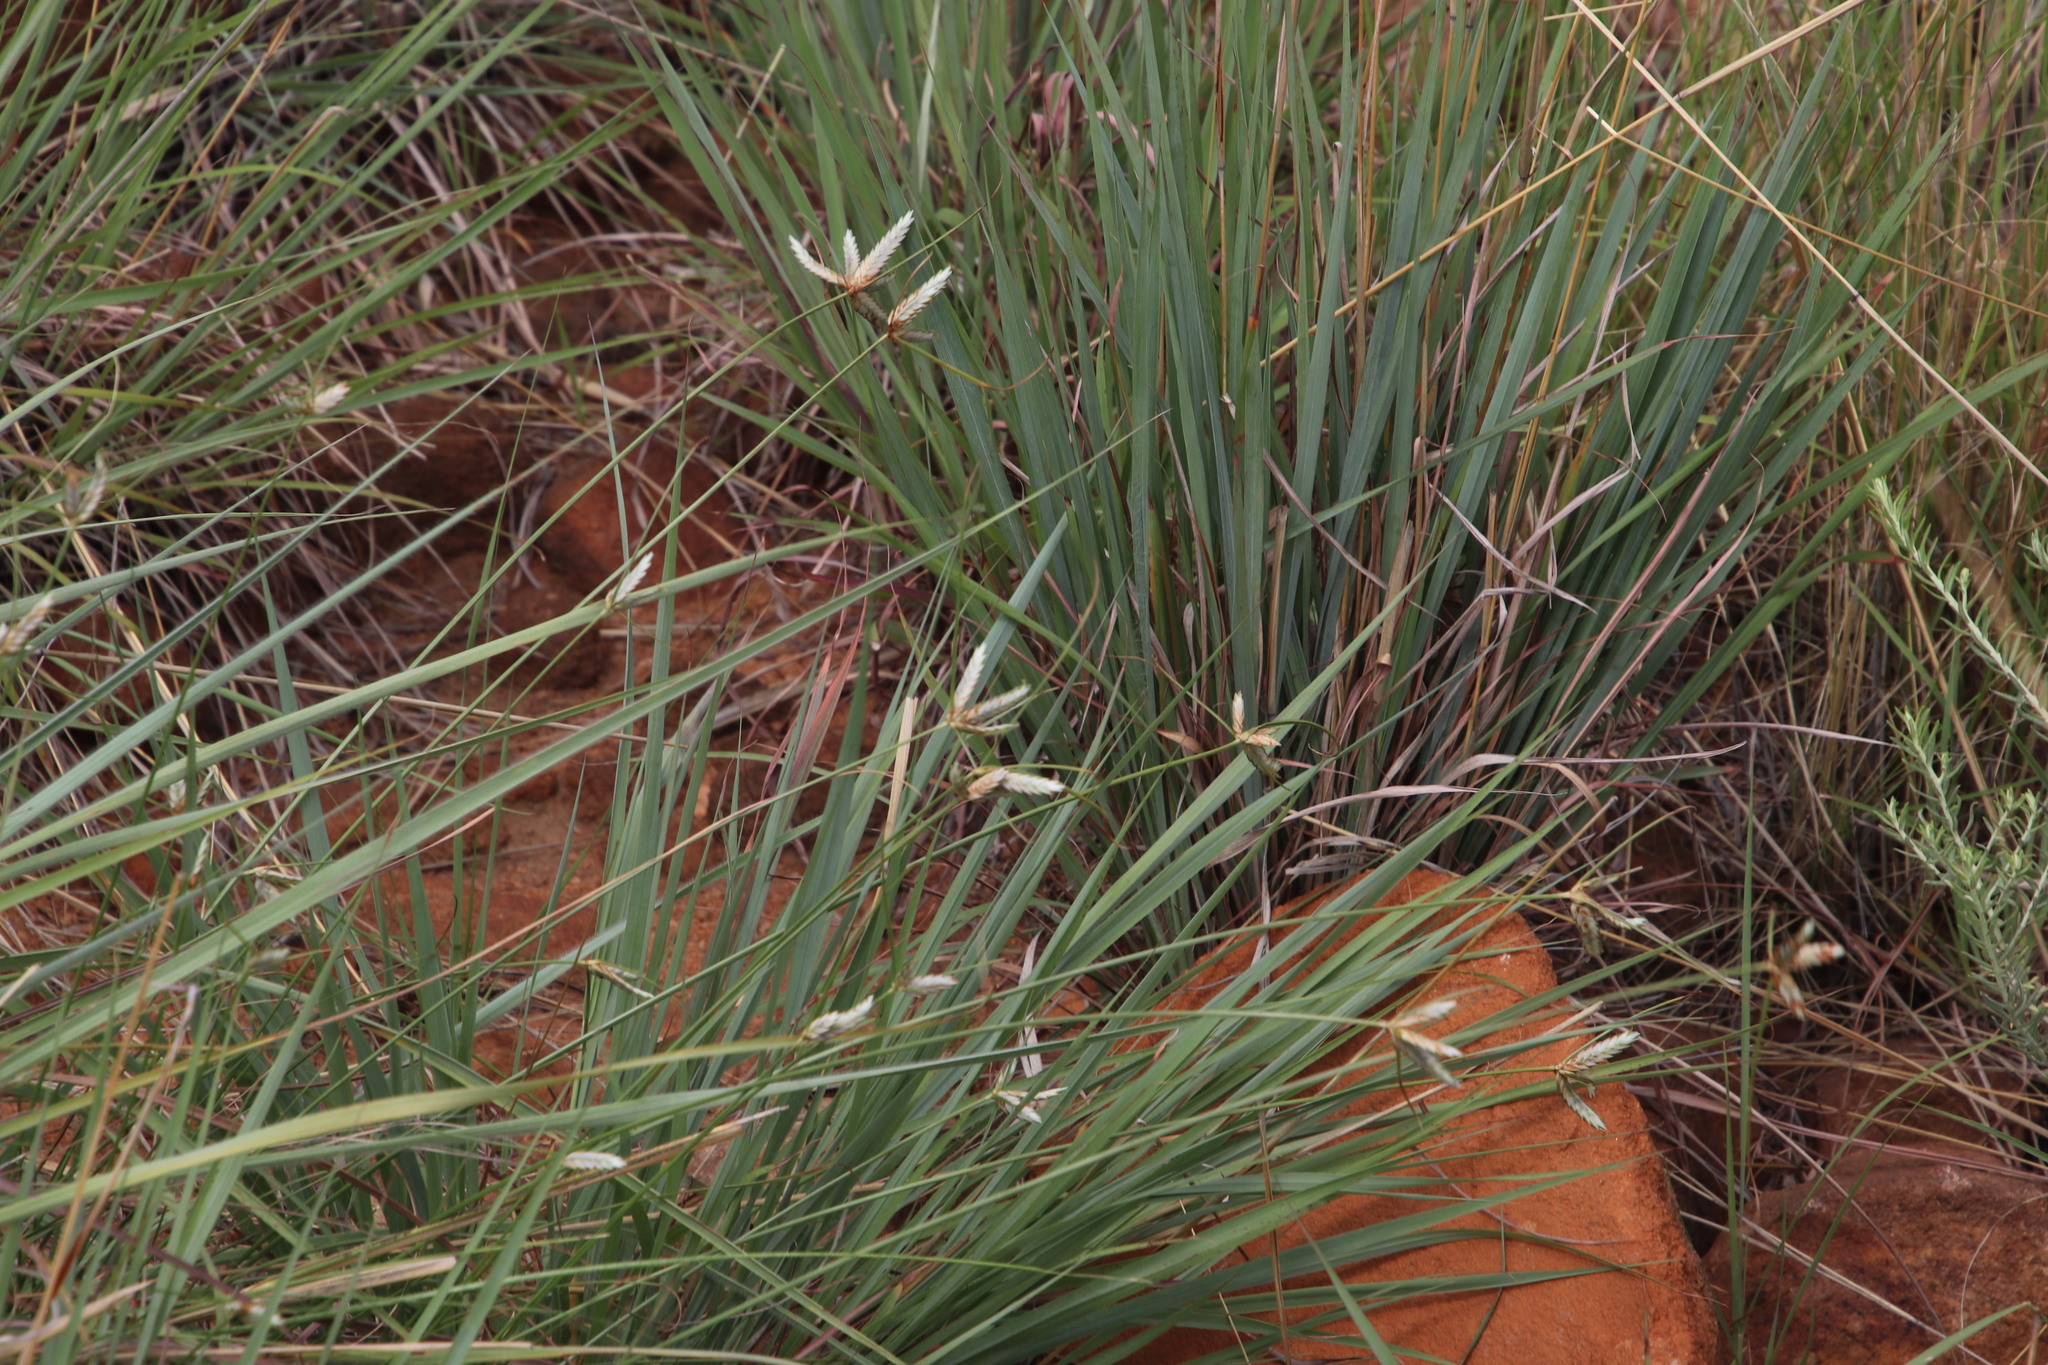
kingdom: Plantae
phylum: Tracheophyta
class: Liliopsida
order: Poales
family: Cyperaceae
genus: Cyperus
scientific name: Cyperus margaritaceus
